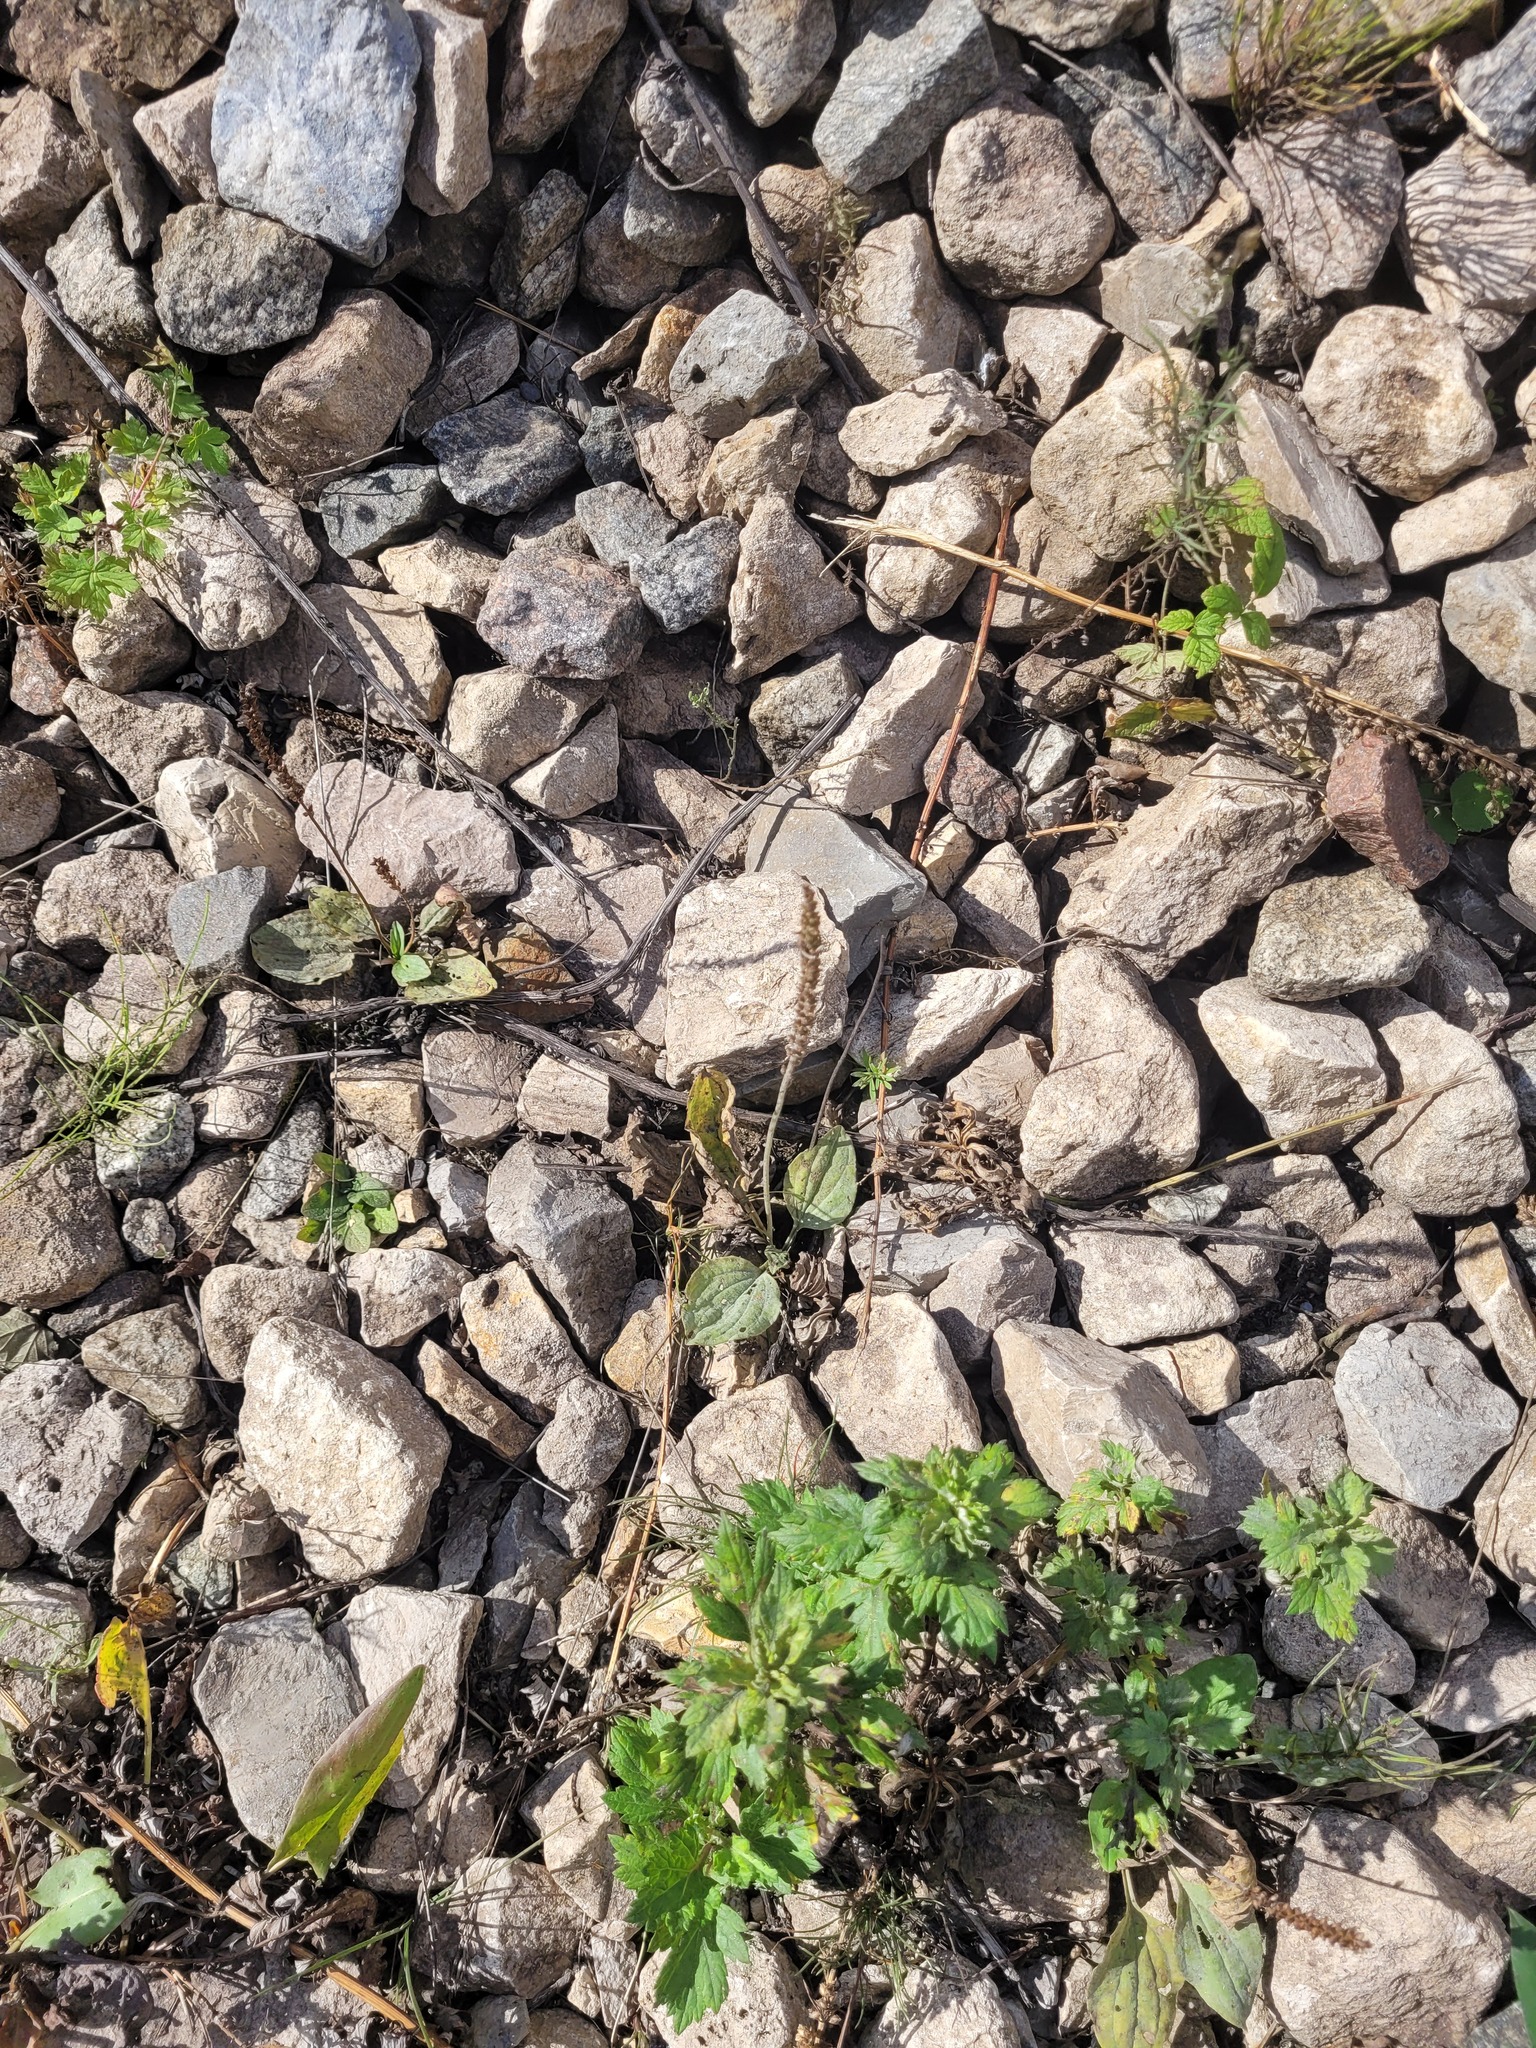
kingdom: Plantae
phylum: Tracheophyta
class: Magnoliopsida
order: Lamiales
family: Plantaginaceae
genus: Plantago
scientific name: Plantago major
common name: Common plantain
